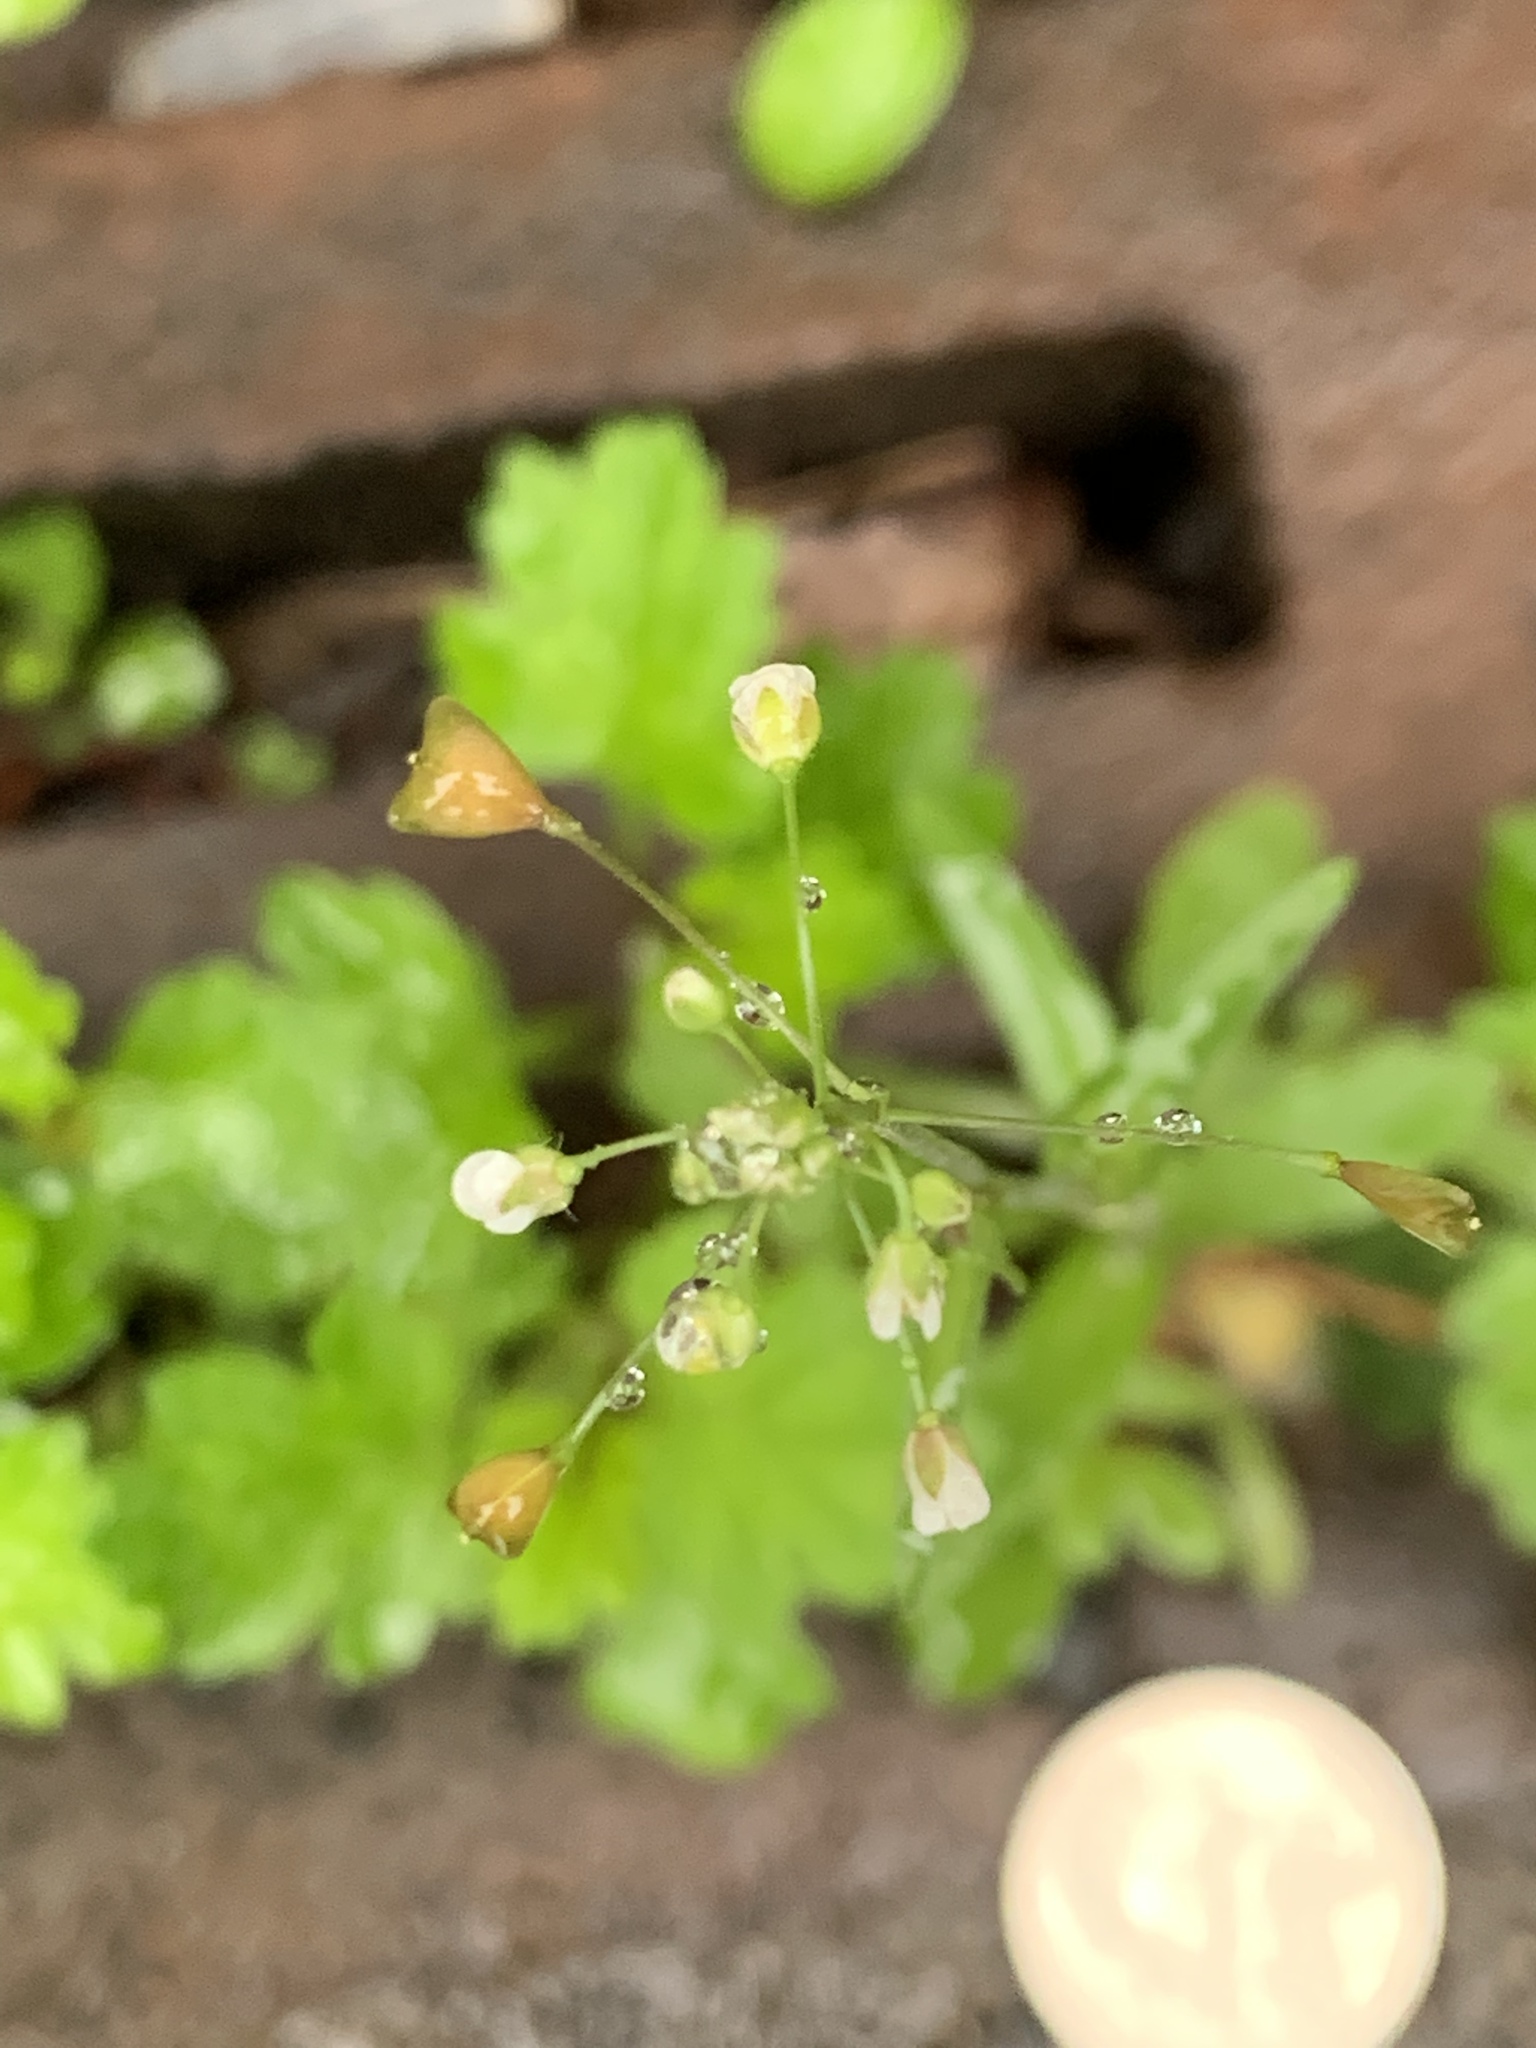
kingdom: Plantae
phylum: Tracheophyta
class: Magnoliopsida
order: Brassicales
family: Brassicaceae
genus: Capsella
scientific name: Capsella bursa-pastoris
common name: Shepherd's purse
